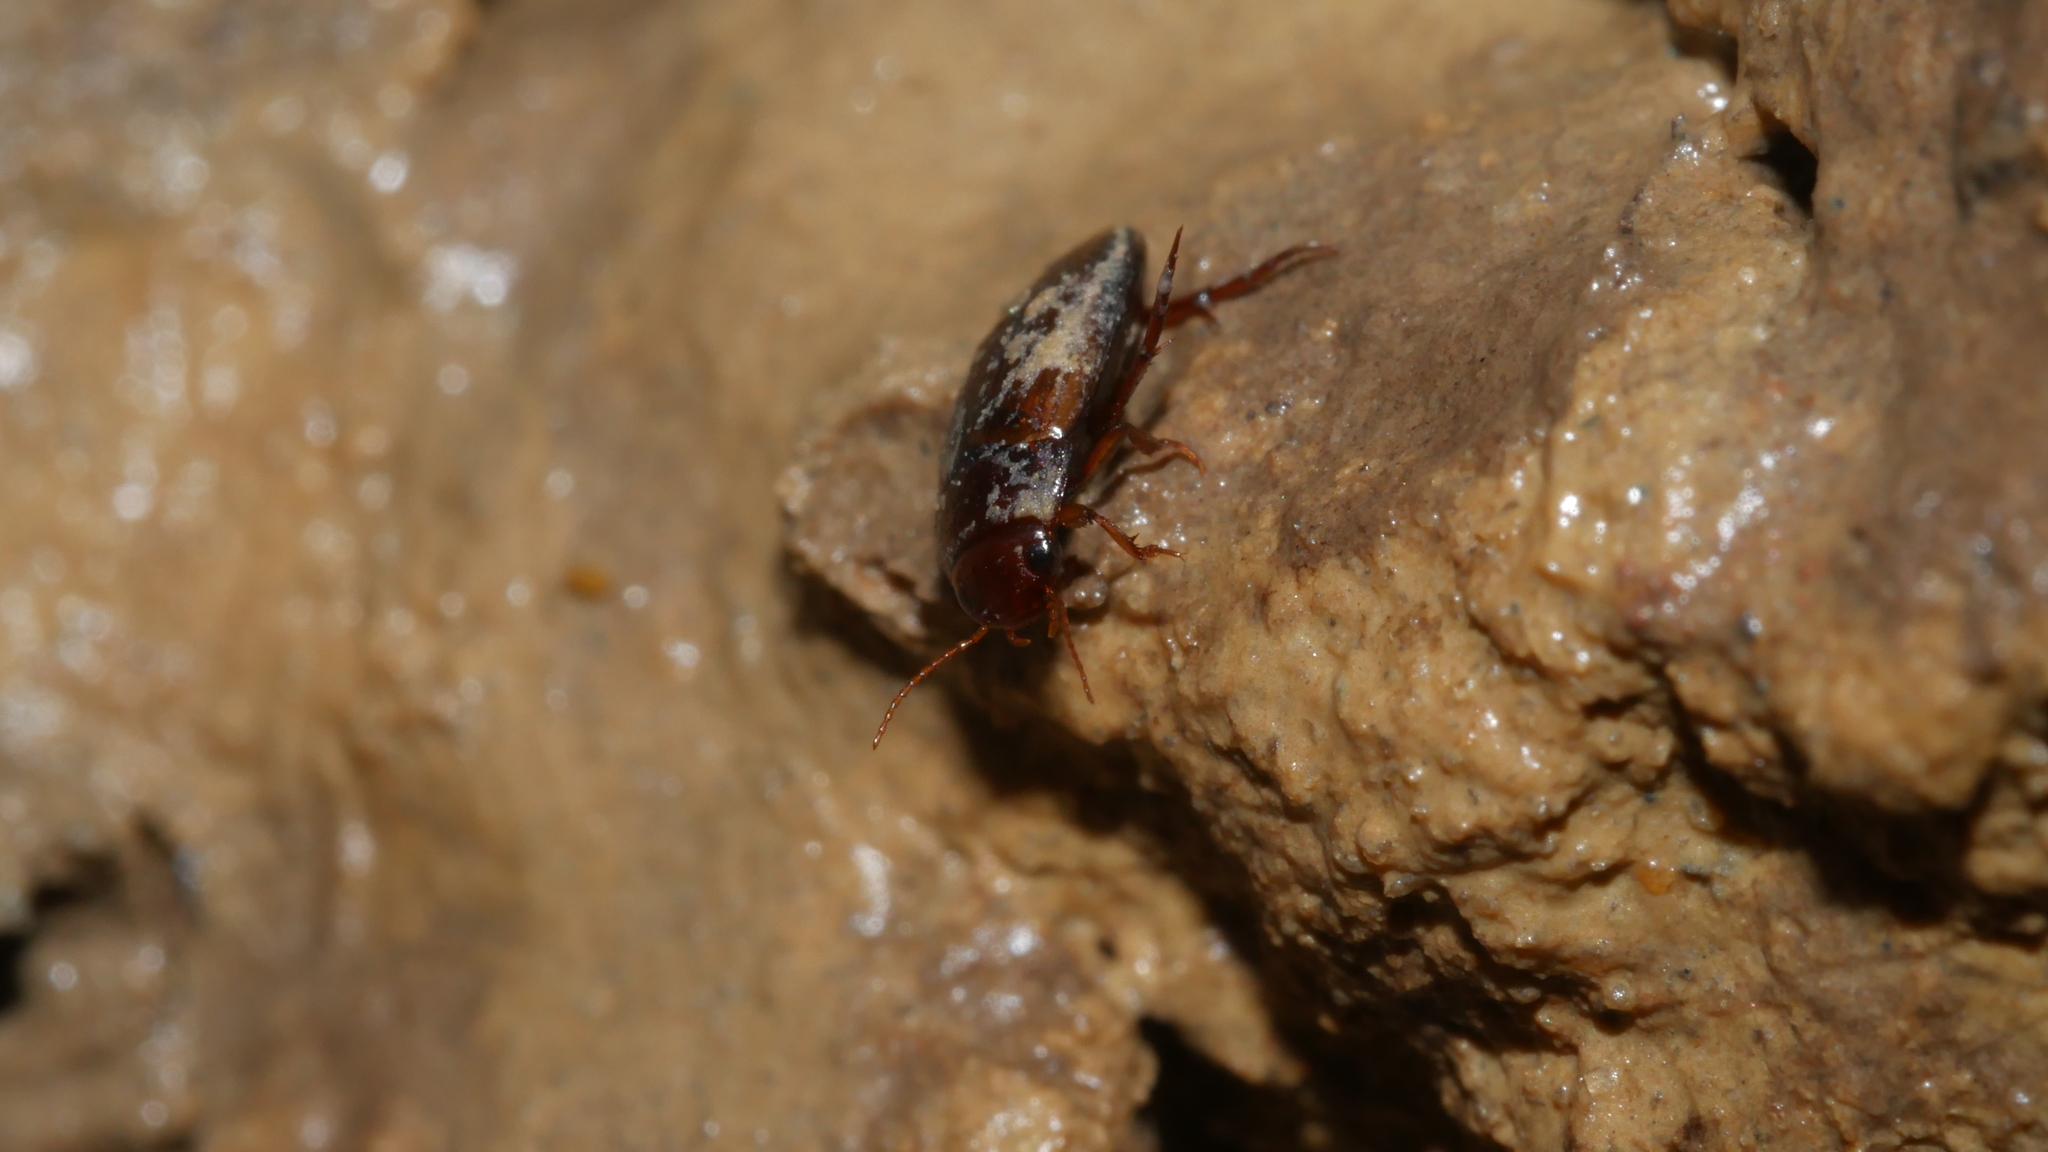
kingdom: Animalia
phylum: Arthropoda
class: Insecta
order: Coleoptera
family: Dytiscidae
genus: Copelatus
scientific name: Copelatus
